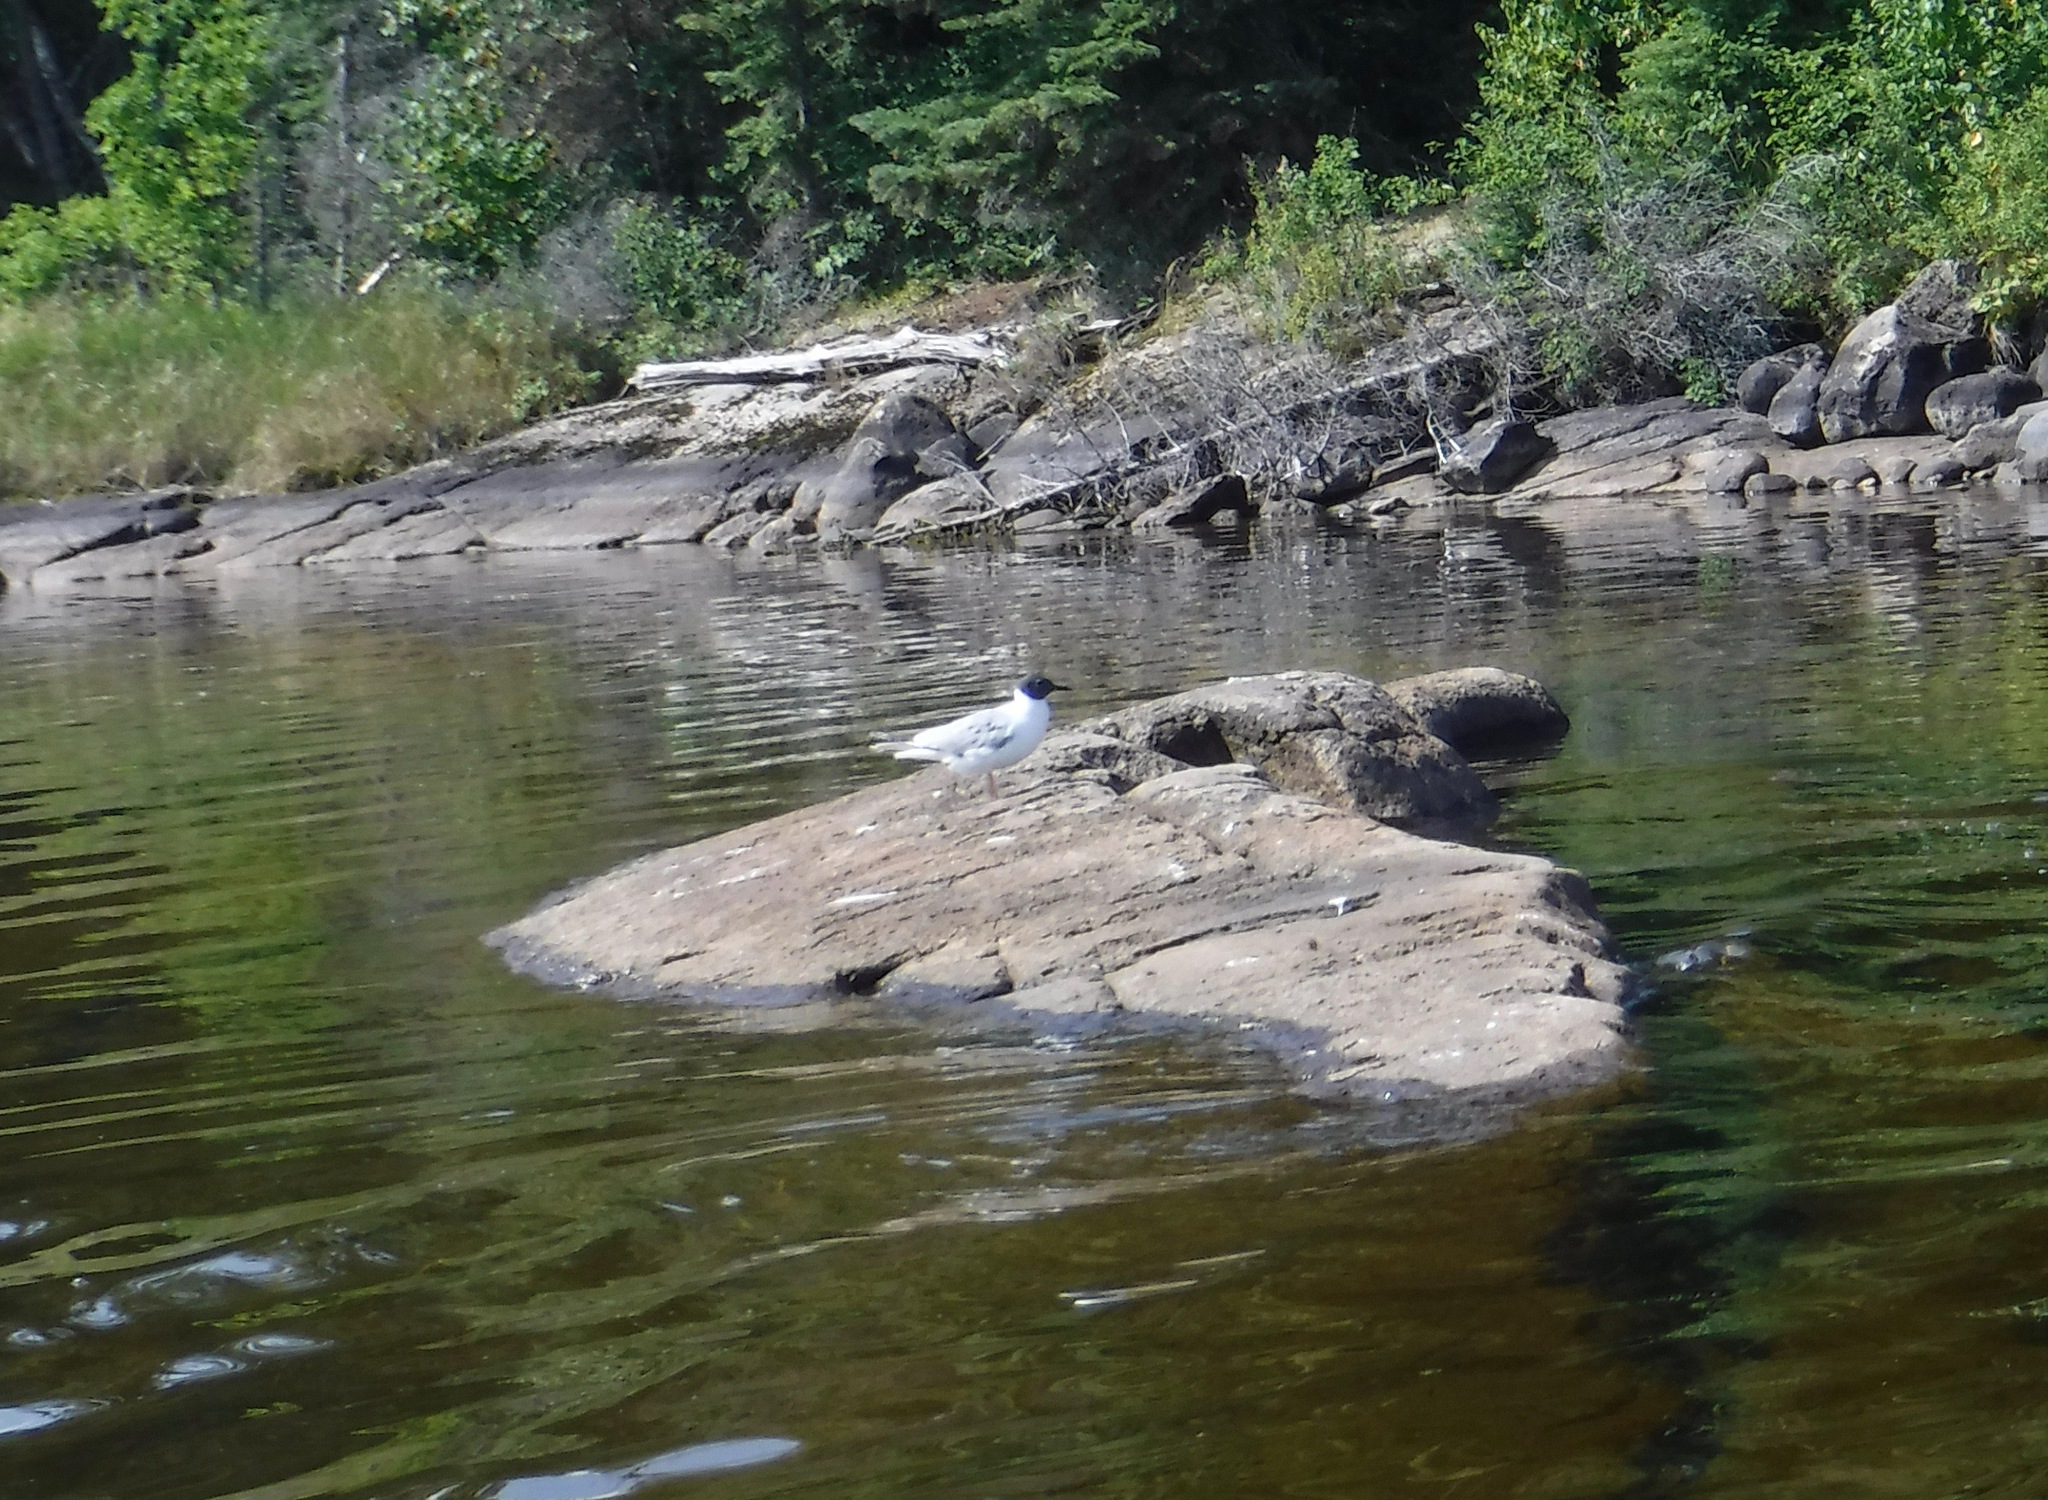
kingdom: Animalia
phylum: Chordata
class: Aves
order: Charadriiformes
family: Laridae
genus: Chroicocephalus
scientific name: Chroicocephalus philadelphia
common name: Bonaparte's gull
